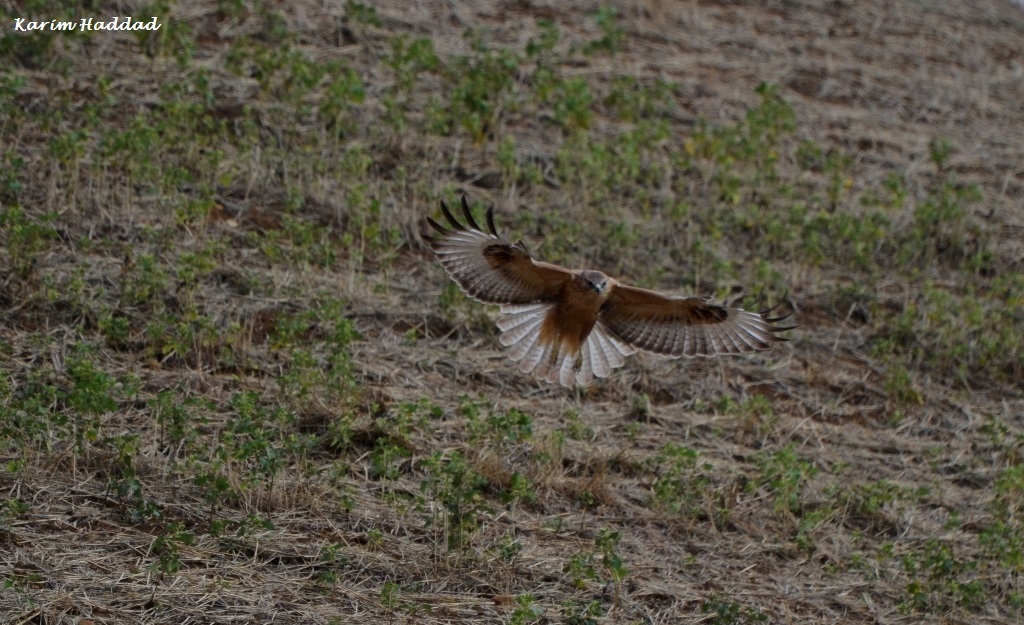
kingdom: Animalia
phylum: Chordata
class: Aves
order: Accipitriformes
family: Accipitridae
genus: Buteo
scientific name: Buteo rufinus
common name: Long-legged buzzard
